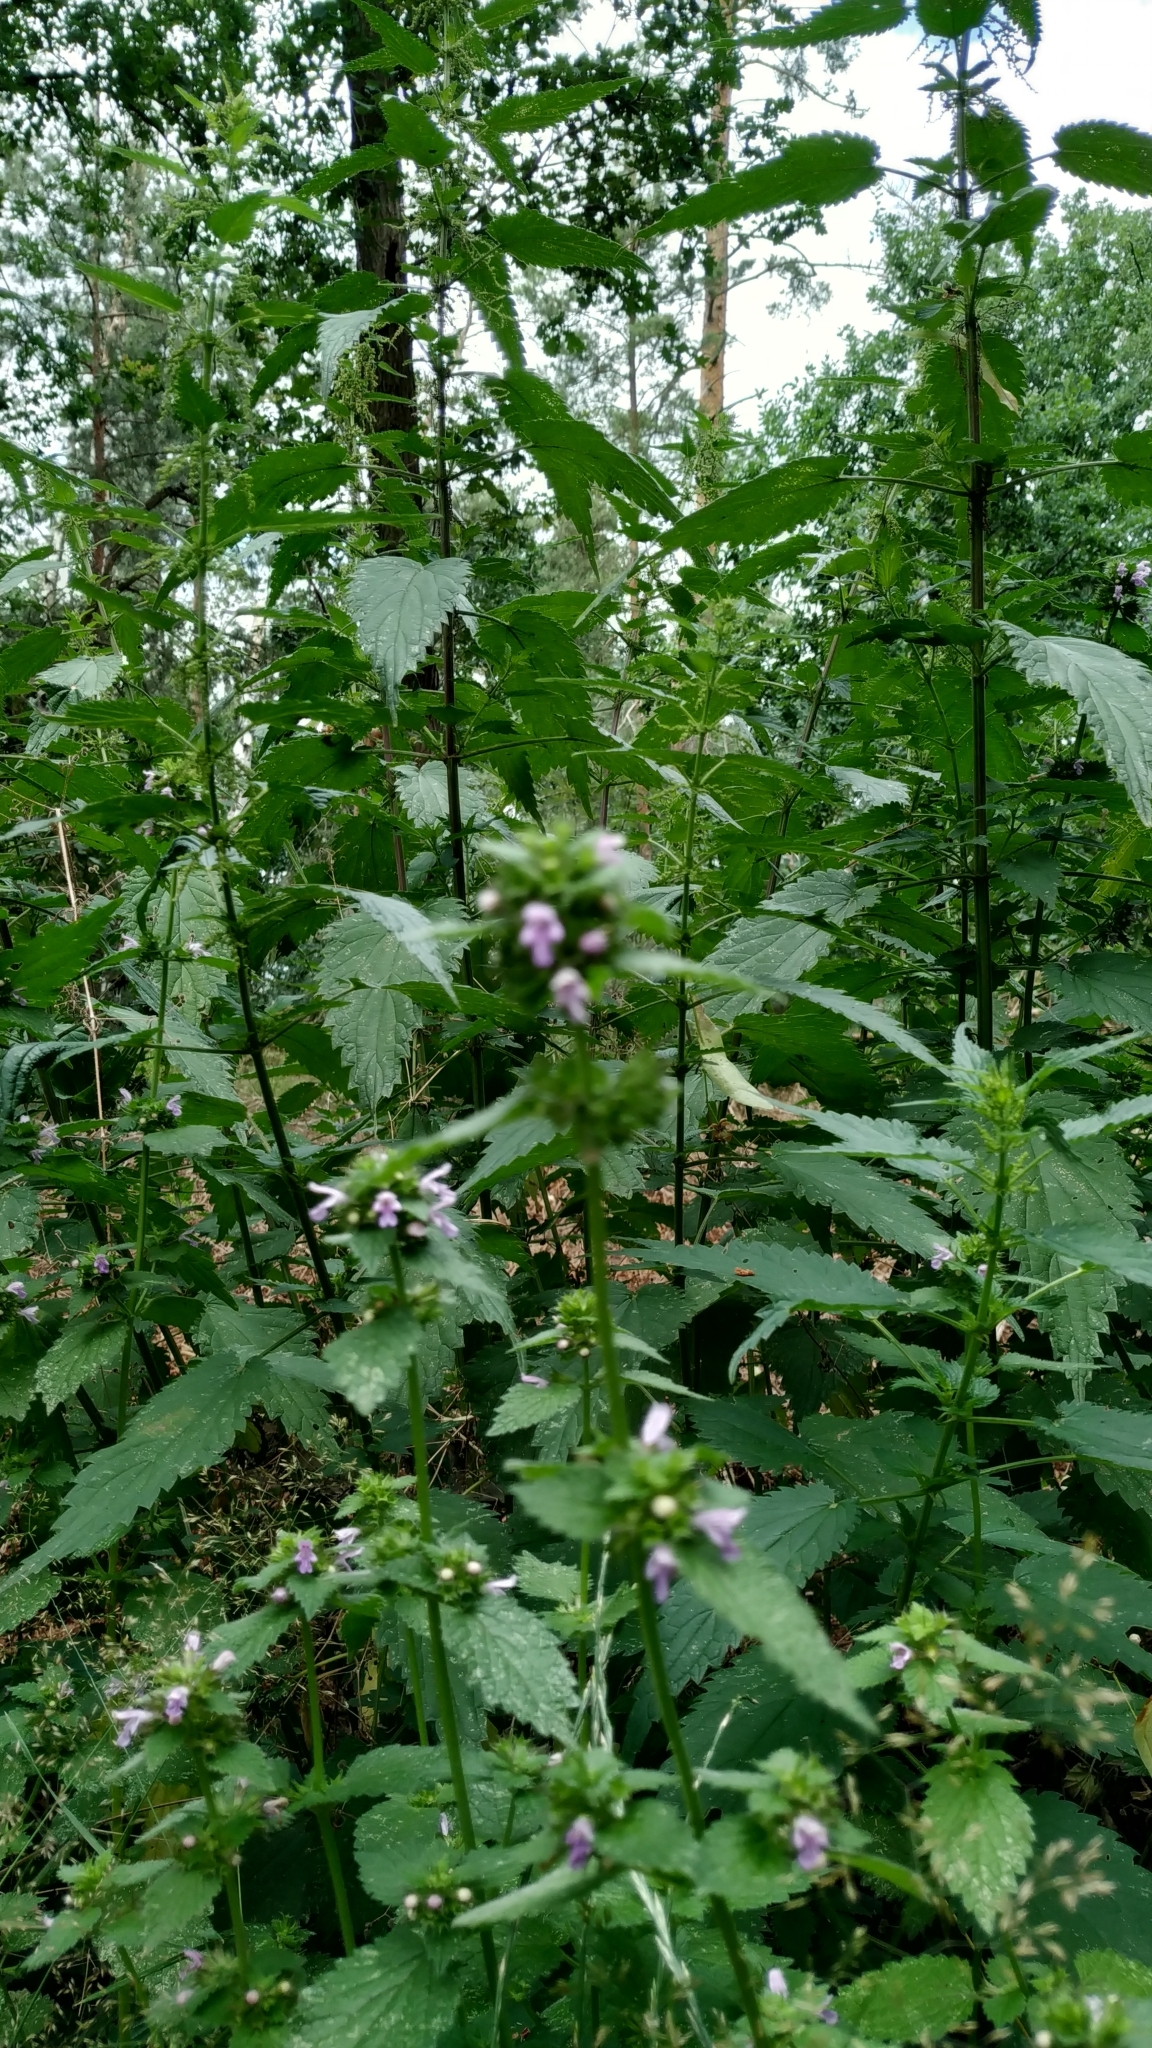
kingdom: Plantae
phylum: Tracheophyta
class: Magnoliopsida
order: Lamiales
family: Lamiaceae
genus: Ballota
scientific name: Ballota nigra
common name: Black horehound
